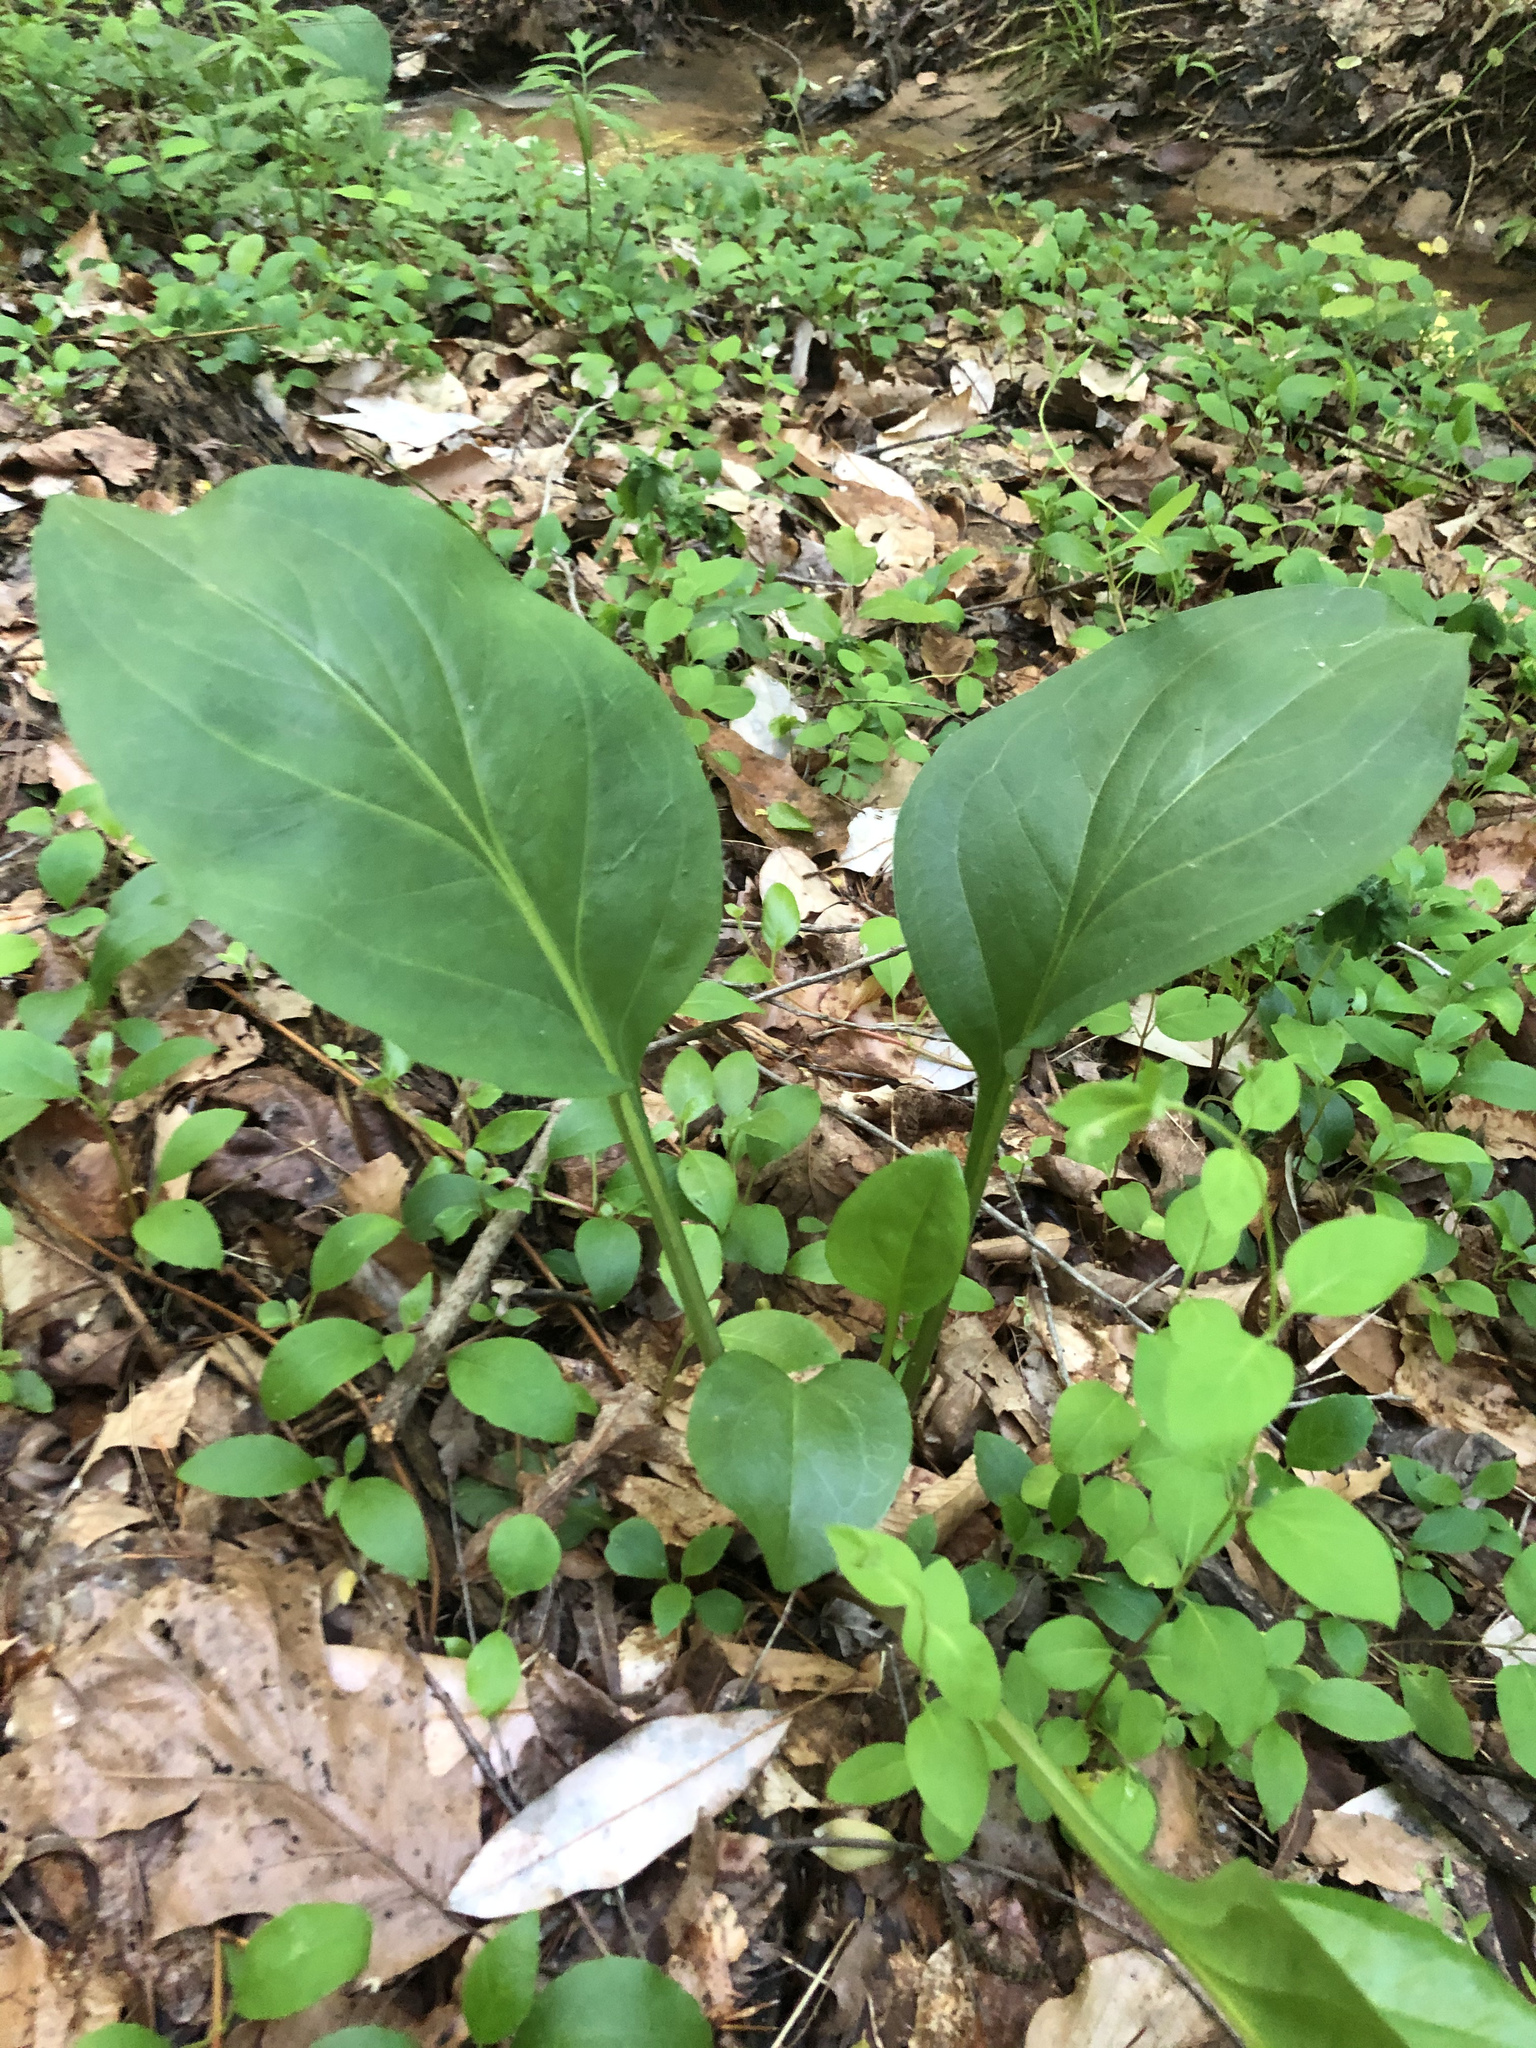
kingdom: Plantae
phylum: Tracheophyta
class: Magnoliopsida
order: Asterales
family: Asteraceae
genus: Arnoglossum
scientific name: Arnoglossum ovatum
